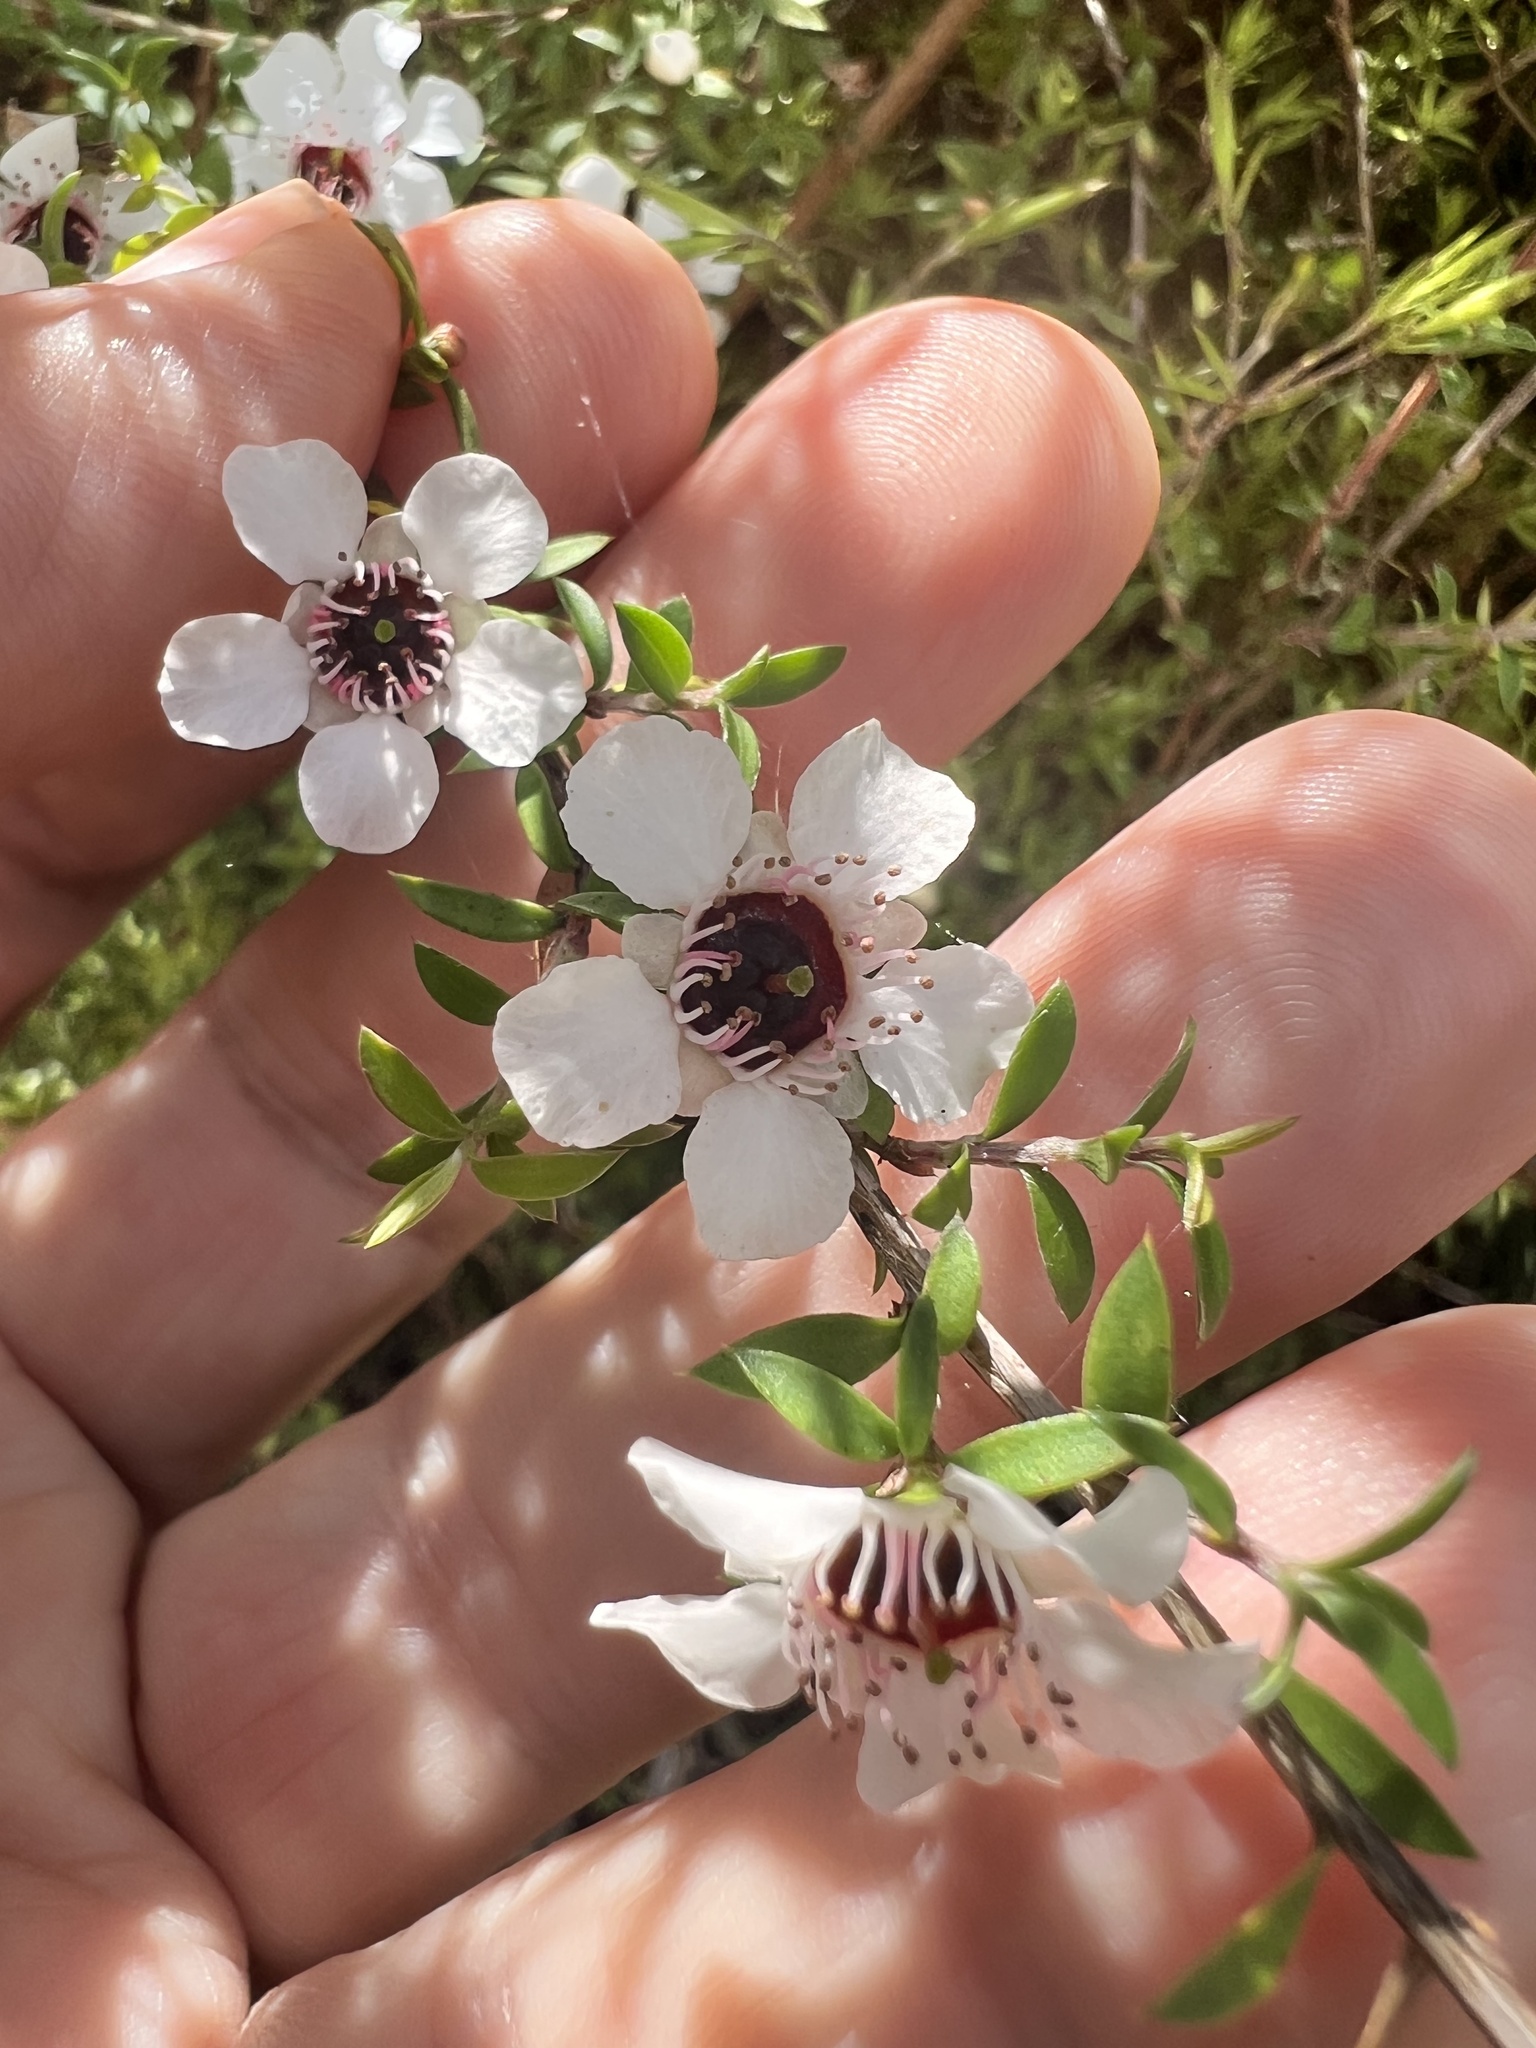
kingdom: Plantae
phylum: Tracheophyta
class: Magnoliopsida
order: Myrtales
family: Myrtaceae
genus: Leptospermum
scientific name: Leptospermum scoparium
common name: Broom tea-tree
